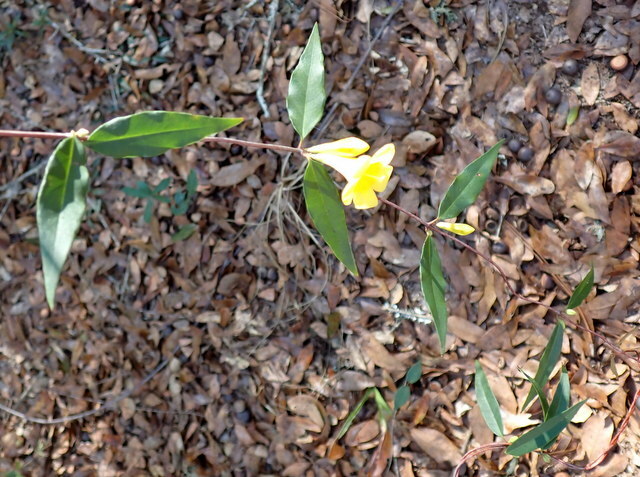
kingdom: Plantae
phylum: Tracheophyta
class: Magnoliopsida
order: Gentianales
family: Gelsemiaceae
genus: Gelsemium
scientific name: Gelsemium sempervirens
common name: Carolina-jasmine
